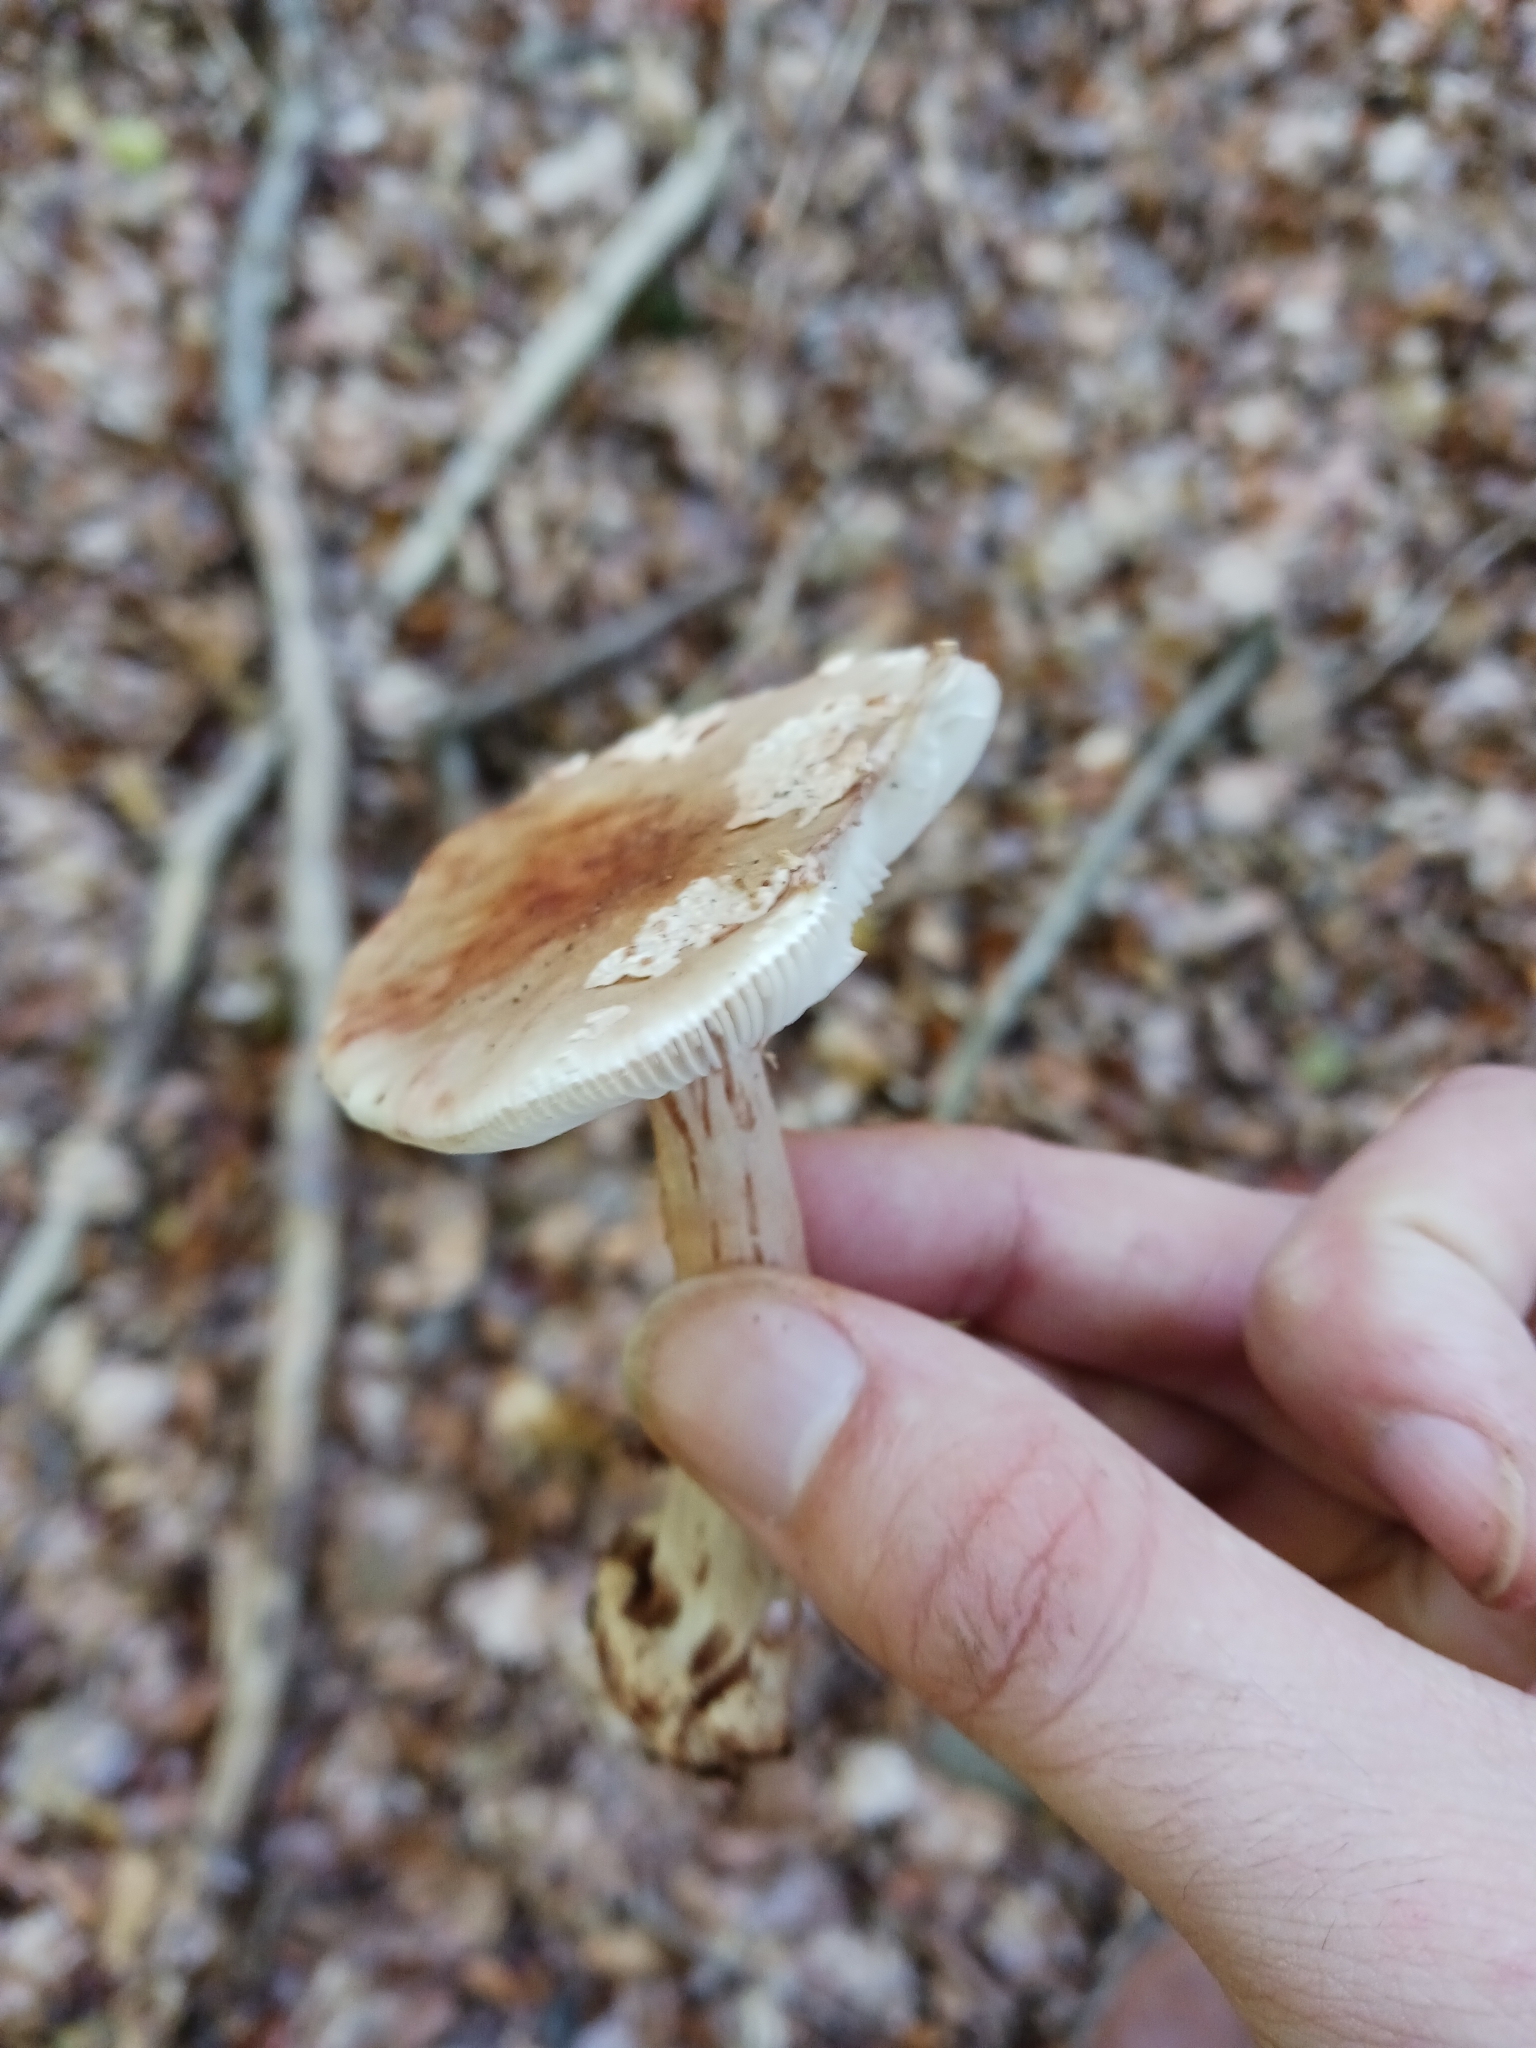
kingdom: Fungi
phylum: Basidiomycota
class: Agaricomycetes
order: Agaricales
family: Amanitaceae
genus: Amanita
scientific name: Amanita rubescens
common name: Blusher
